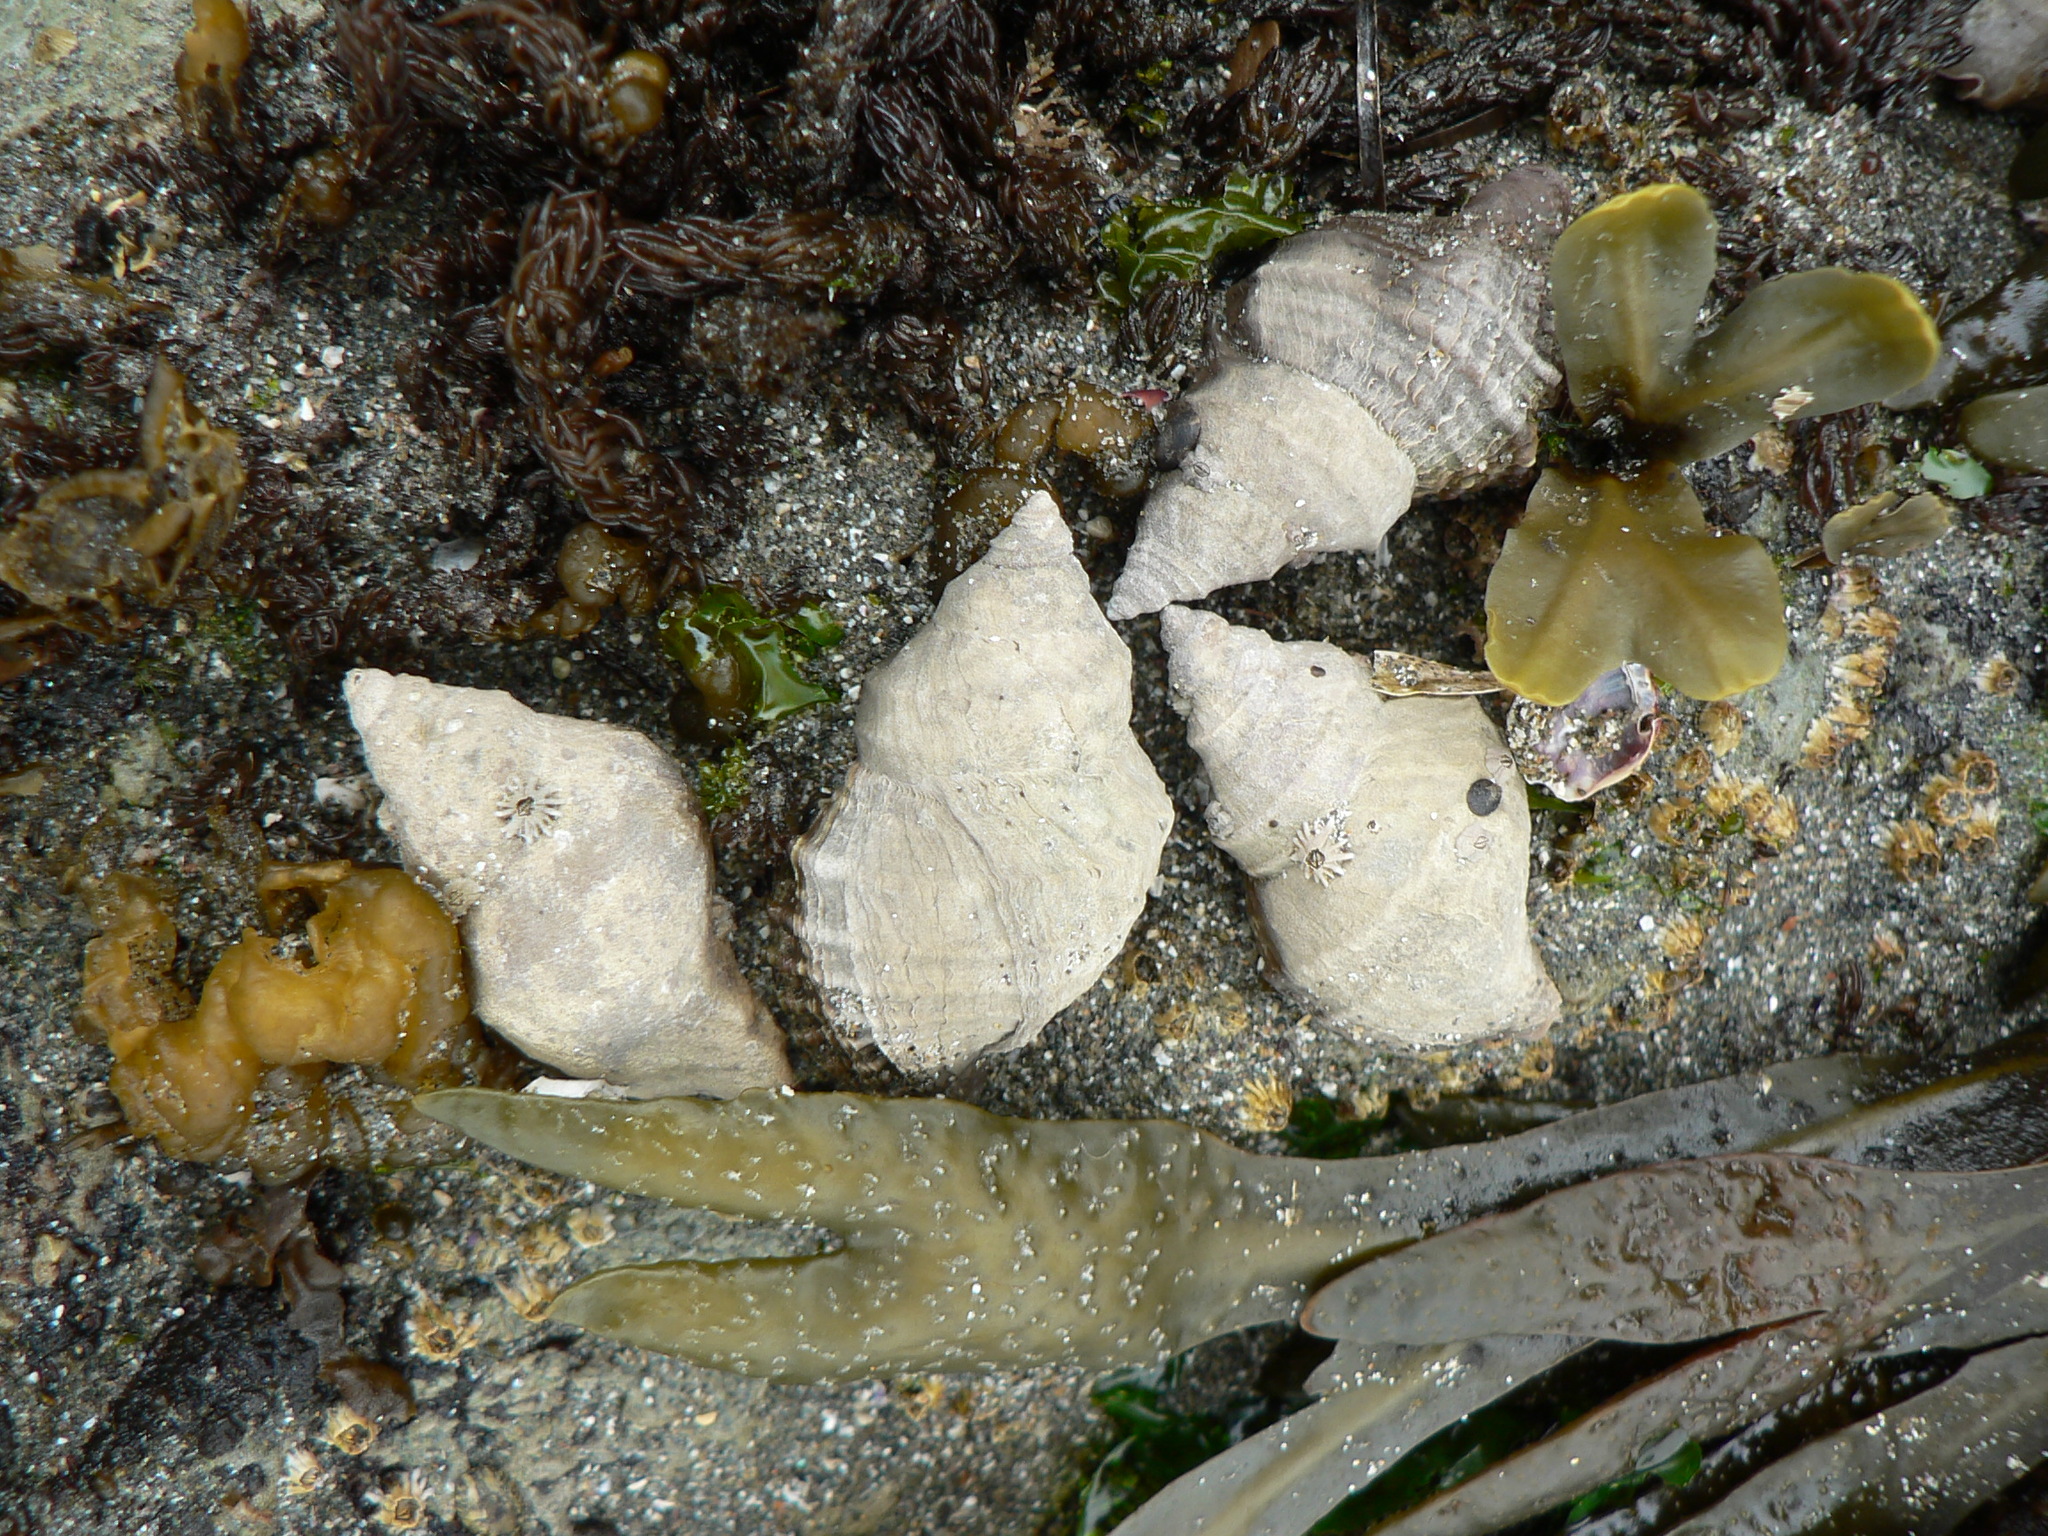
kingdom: Animalia
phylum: Mollusca
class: Gastropoda
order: Neogastropoda
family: Muricidae
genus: Nucella
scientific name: Nucella lamellosa
